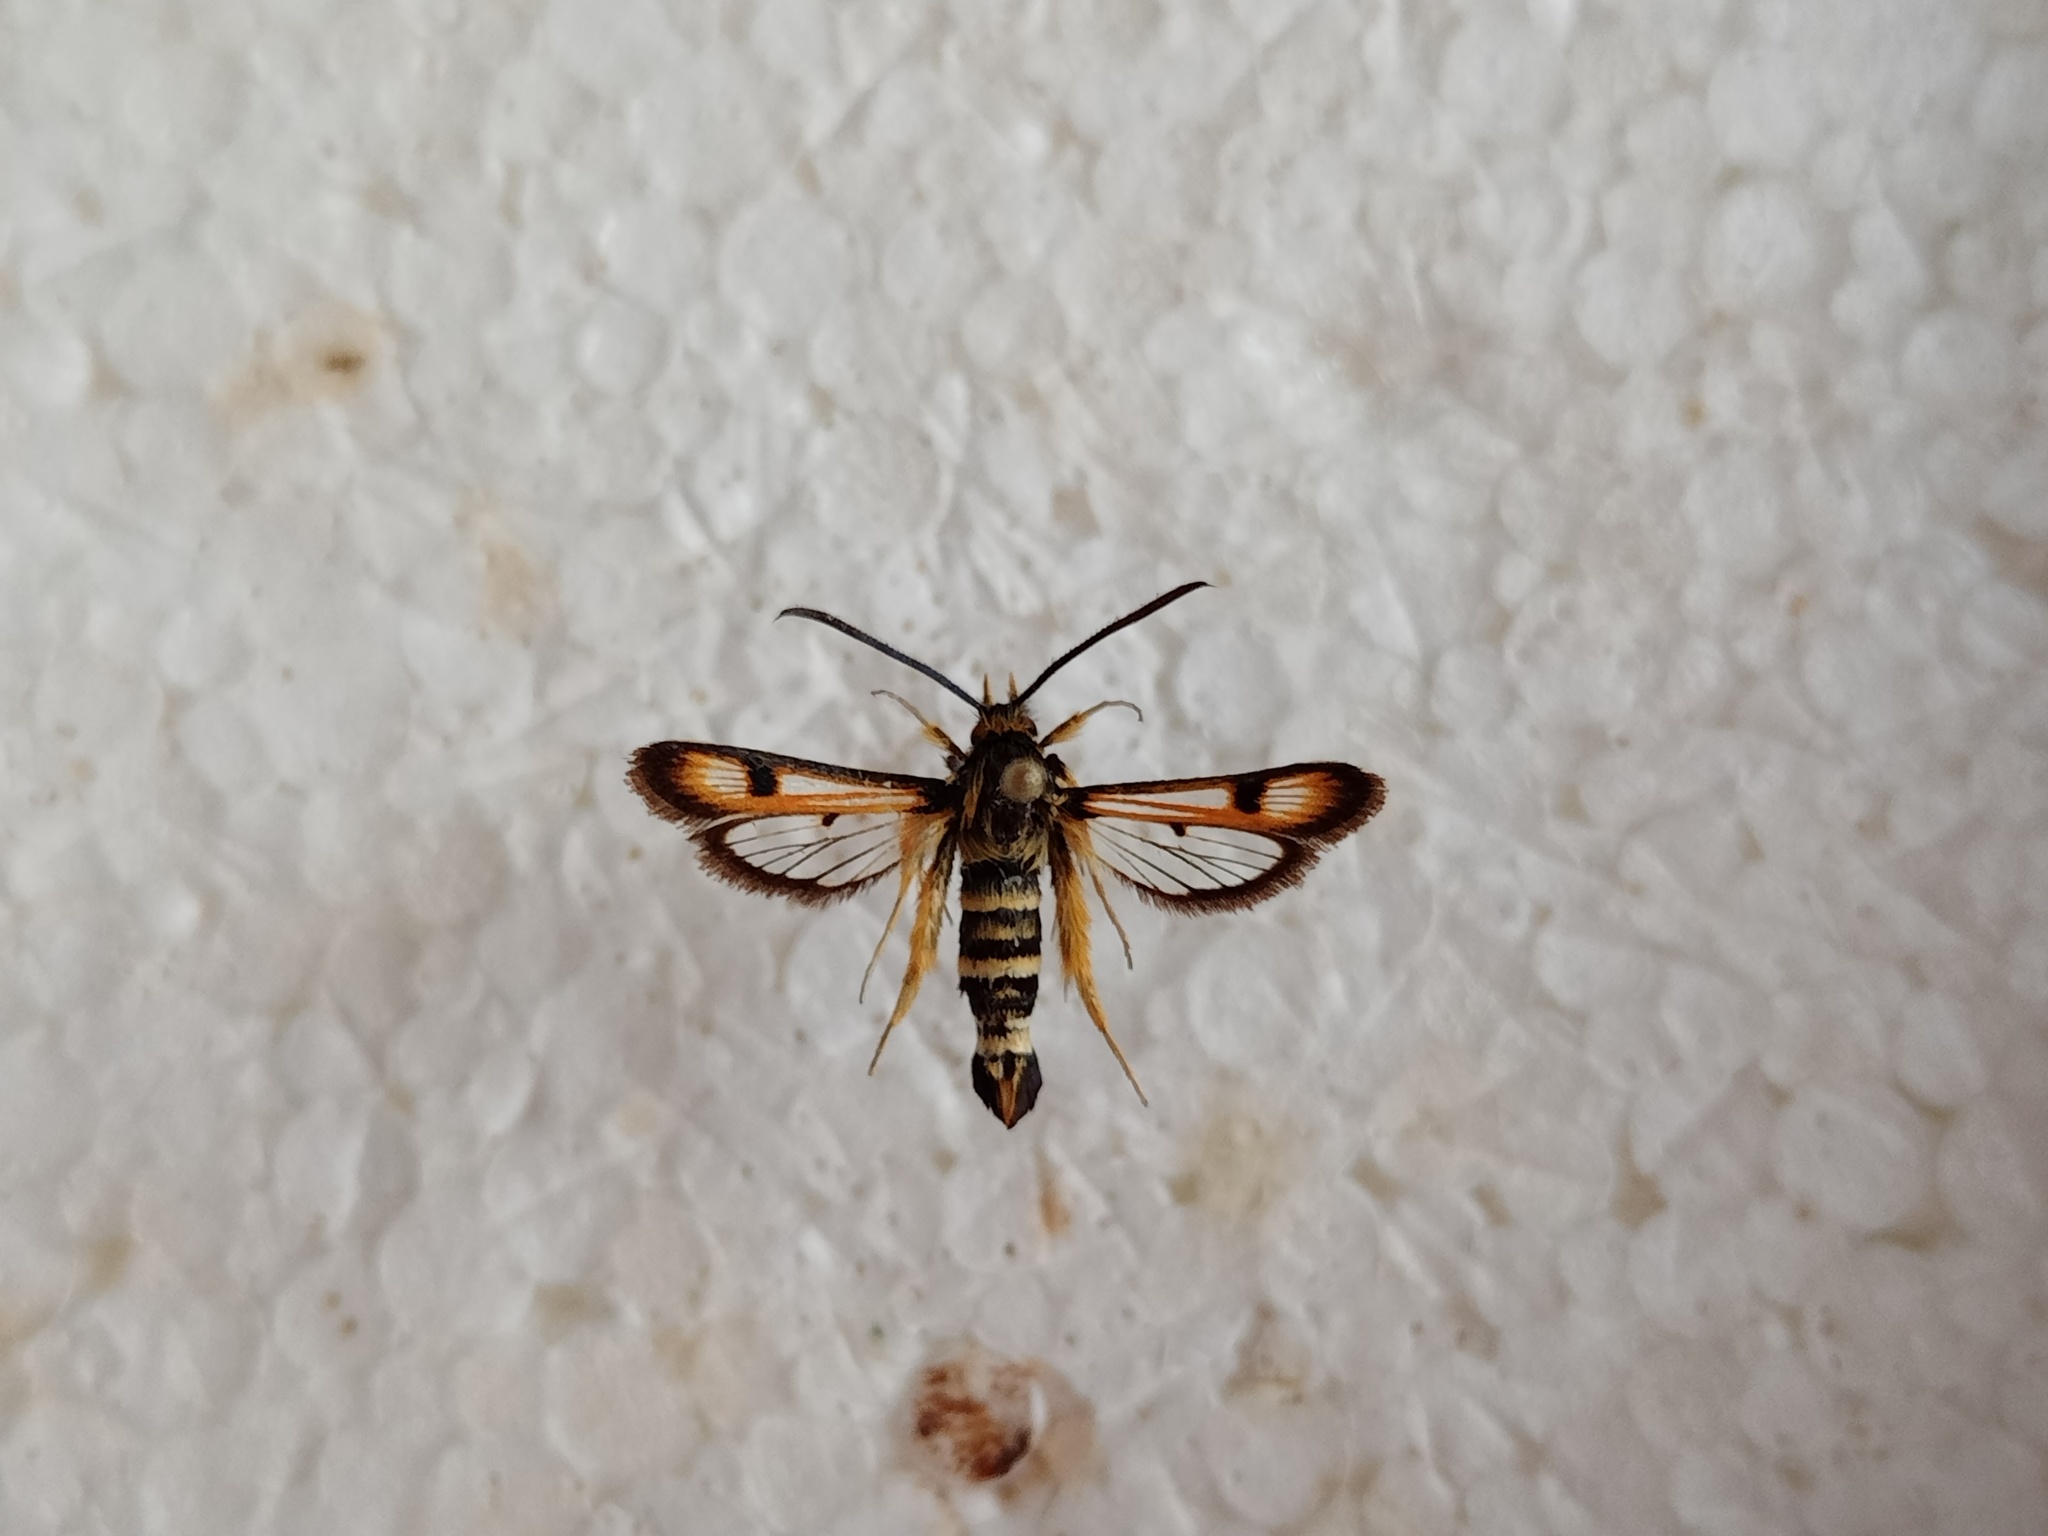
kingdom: Animalia
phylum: Arthropoda
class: Insecta
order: Lepidoptera
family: Sesiidae
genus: Pyropteron
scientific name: Pyropteron minianiformis
